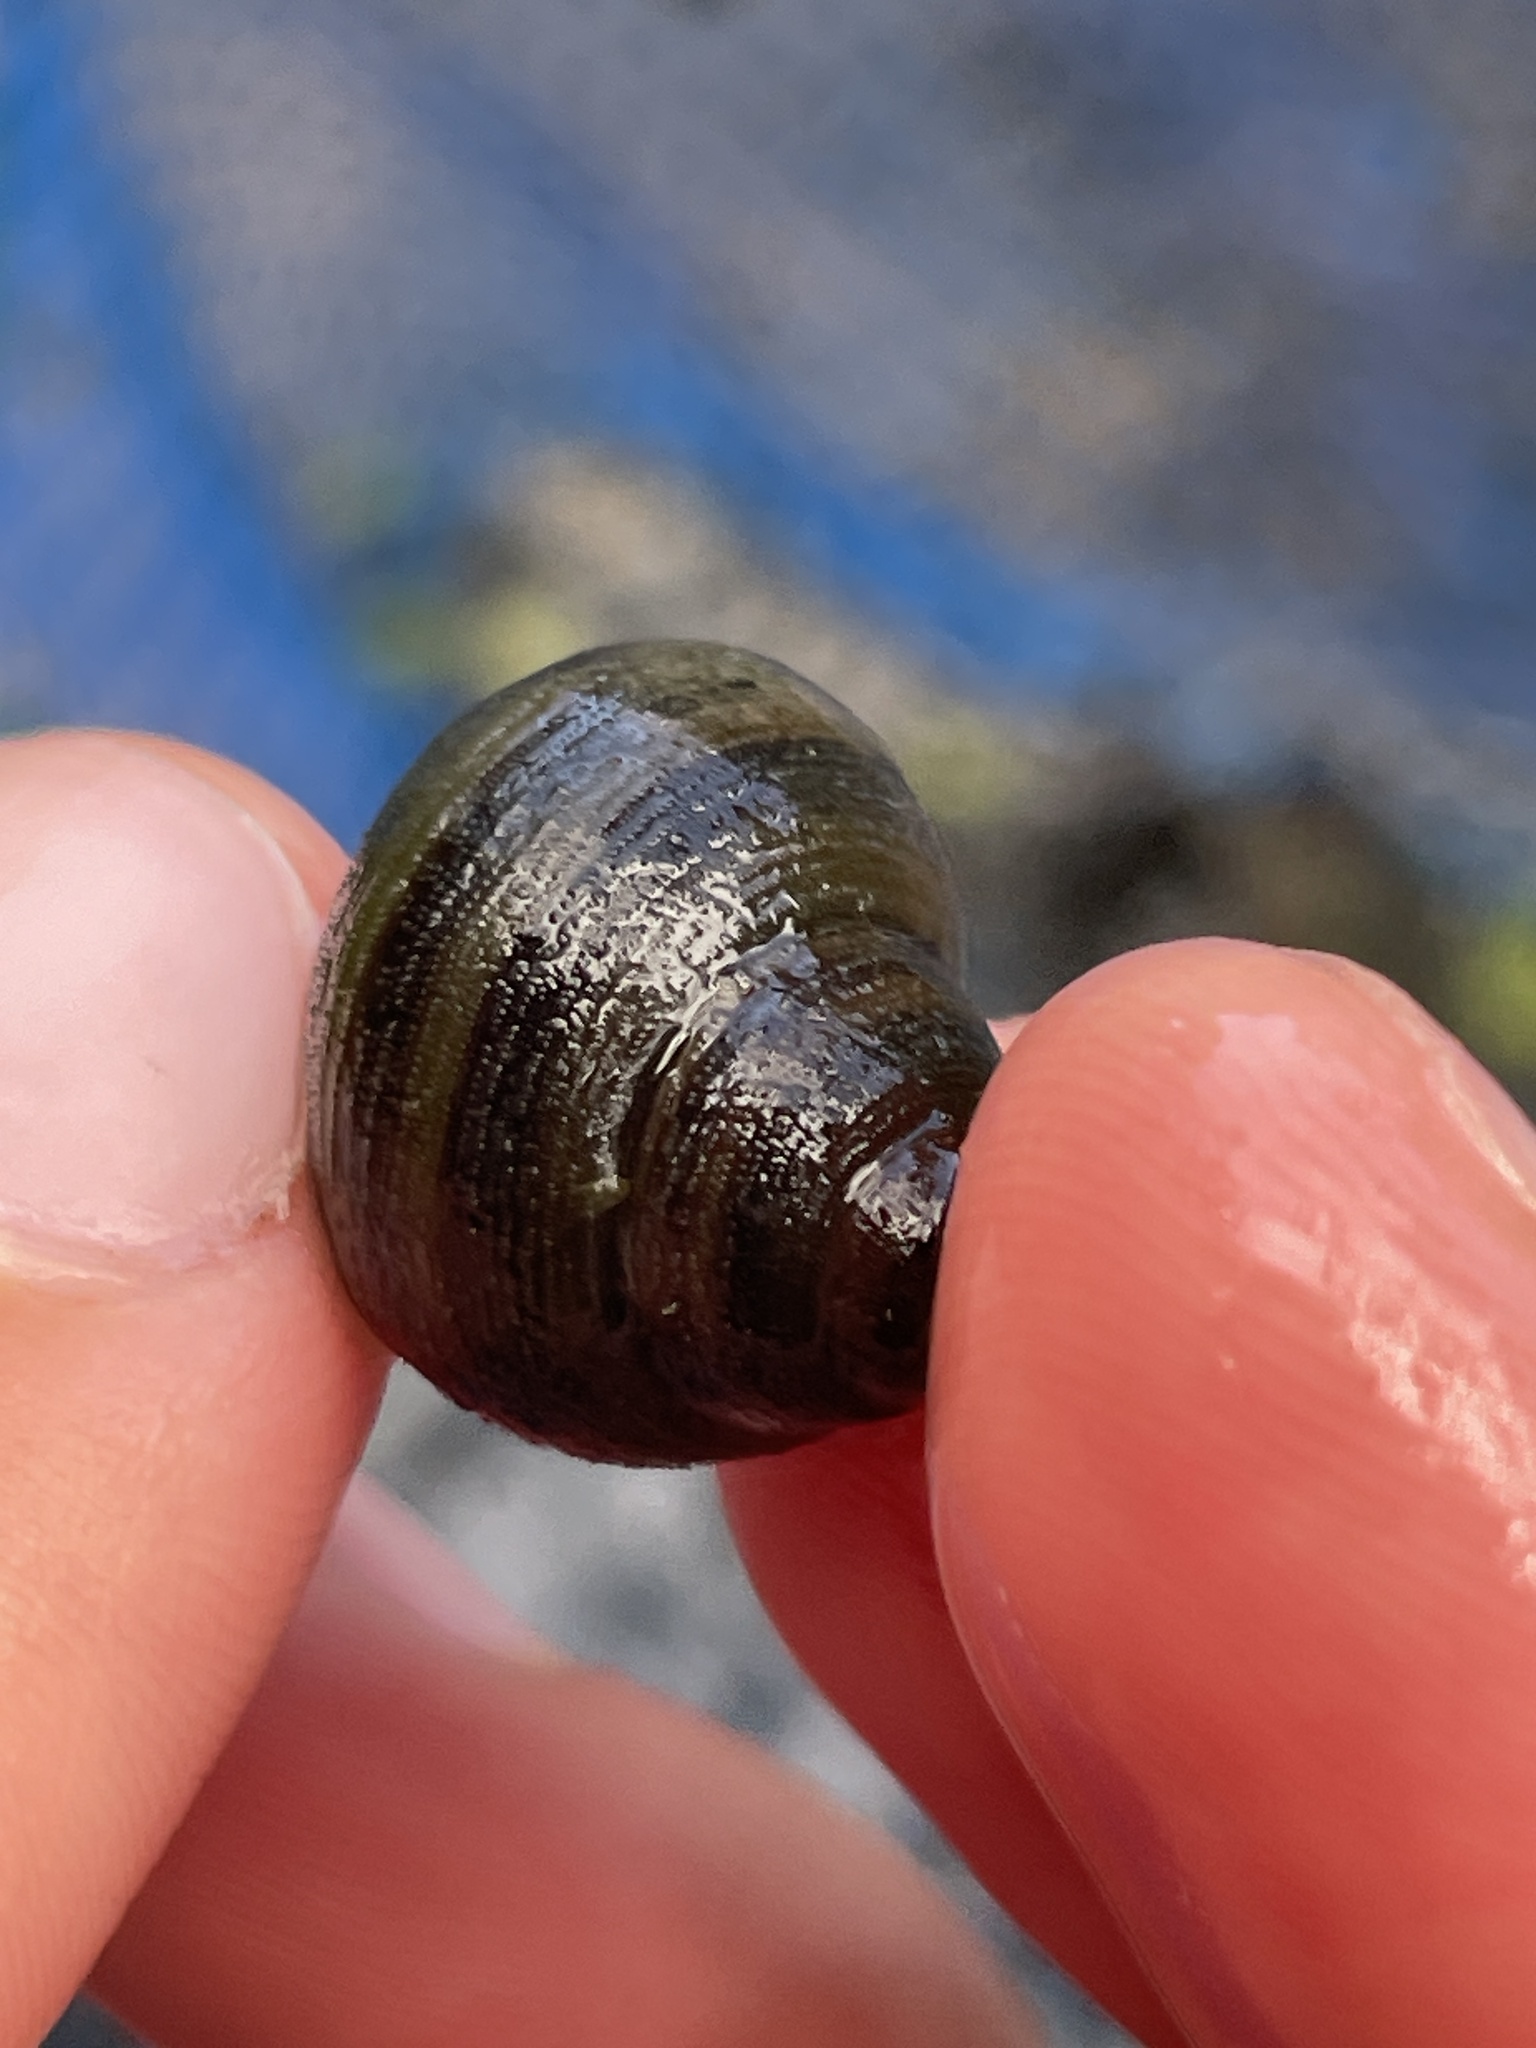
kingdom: Animalia
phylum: Mollusca
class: Gastropoda
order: Architaenioglossa
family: Viviparidae
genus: Callinina
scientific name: Callinina georgiana
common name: Banded mystery snail
